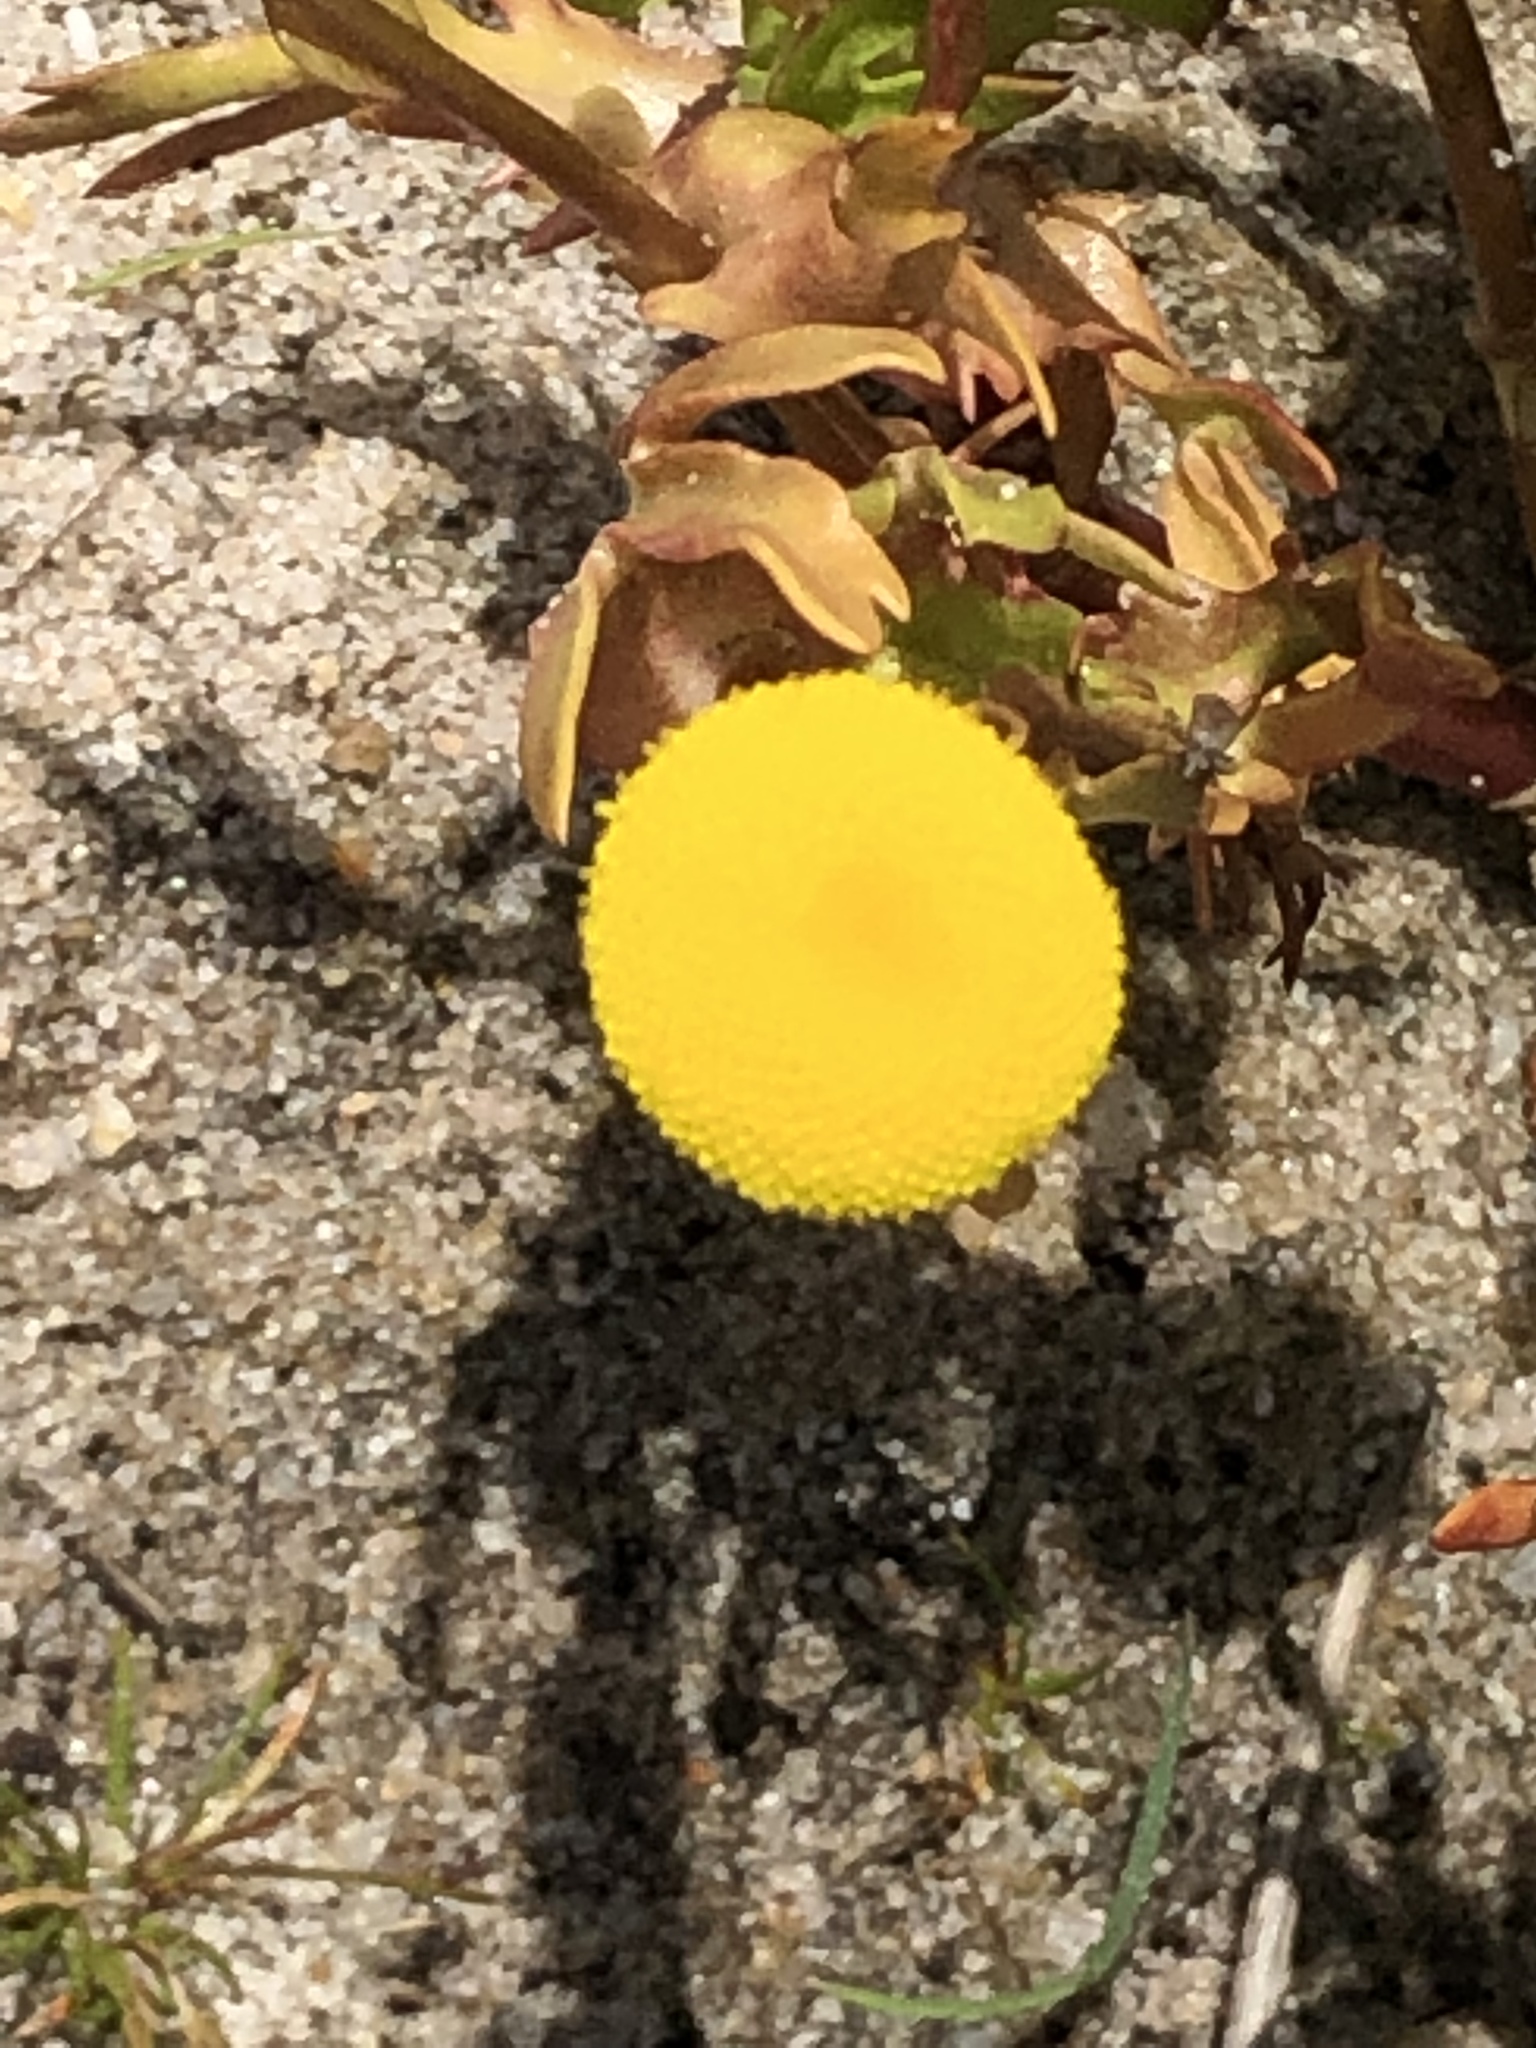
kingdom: Plantae
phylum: Tracheophyta
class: Magnoliopsida
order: Asterales
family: Asteraceae
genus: Cotula
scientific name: Cotula coronopifolia
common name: Buttonweed
